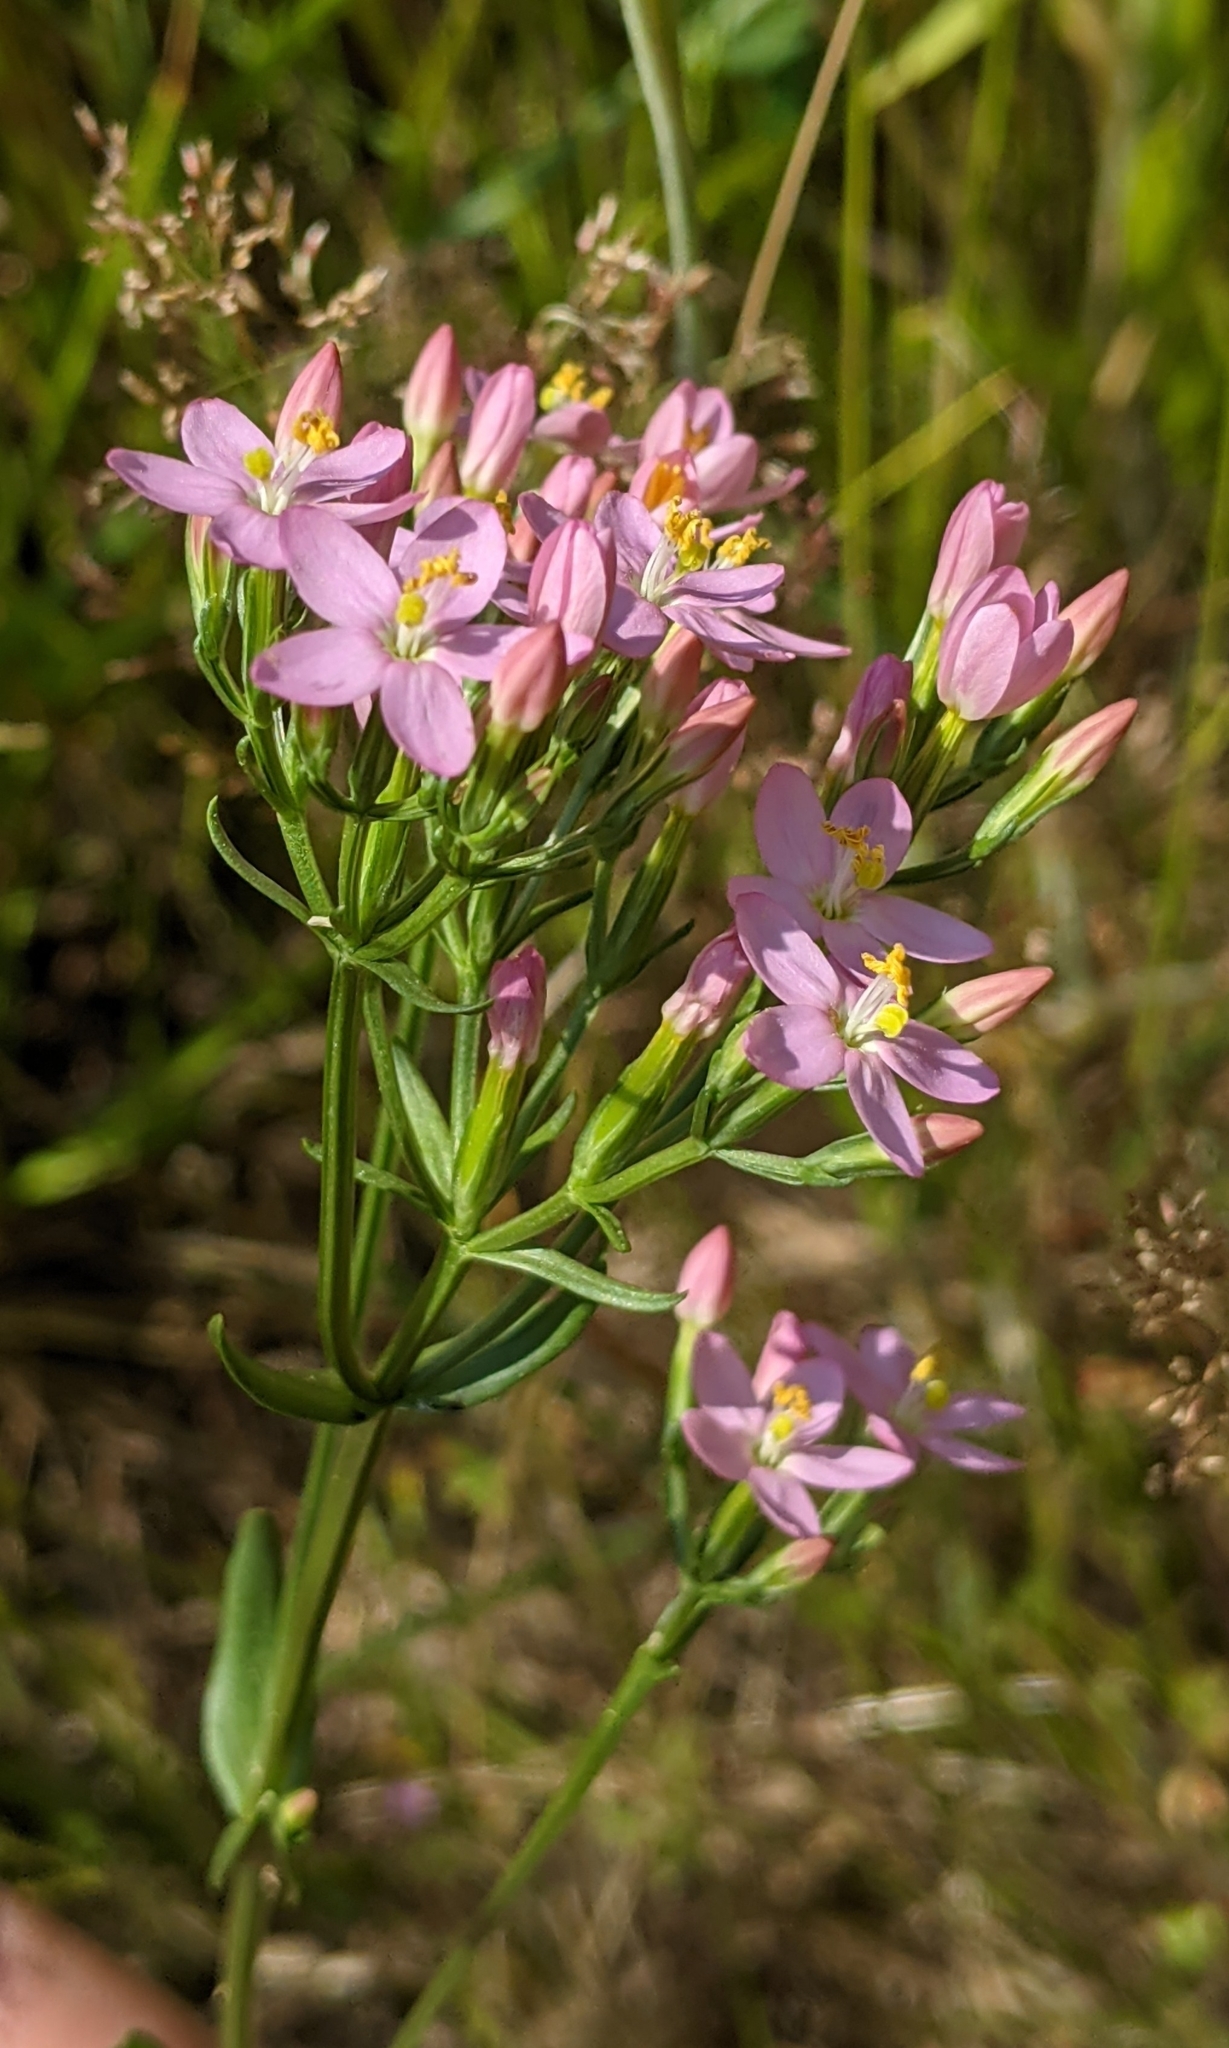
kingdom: Plantae
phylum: Tracheophyta
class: Magnoliopsida
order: Gentianales
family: Gentianaceae
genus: Centaurium
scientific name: Centaurium erythraea
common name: Common centaury
